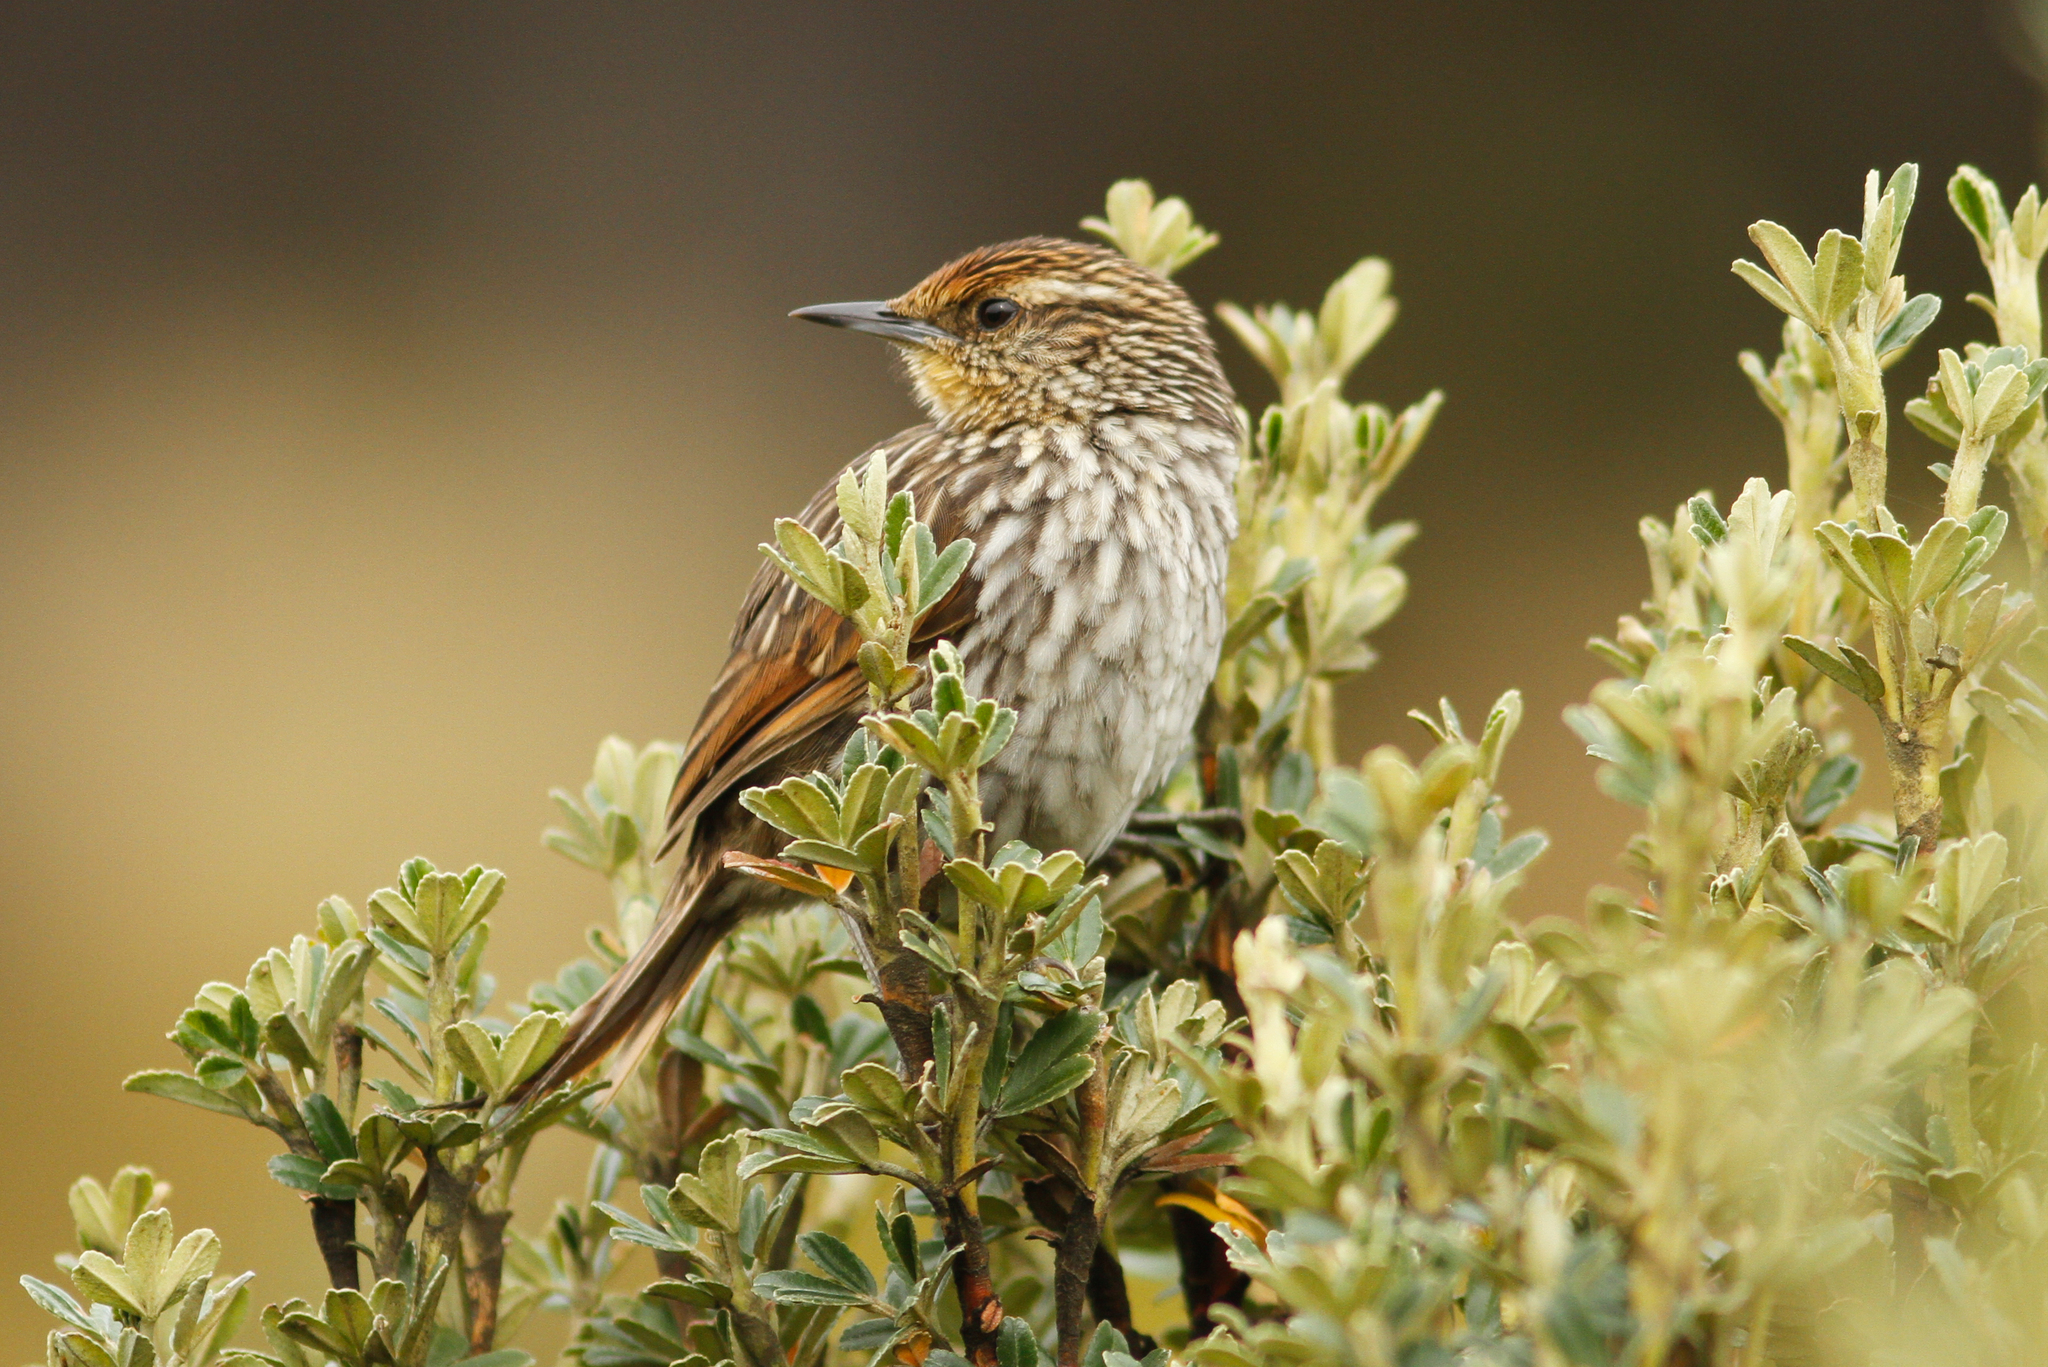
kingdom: Animalia
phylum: Chordata
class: Aves
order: Passeriformes
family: Furnariidae
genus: Asthenes
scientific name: Asthenes flammulata
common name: Many-striped canastero
